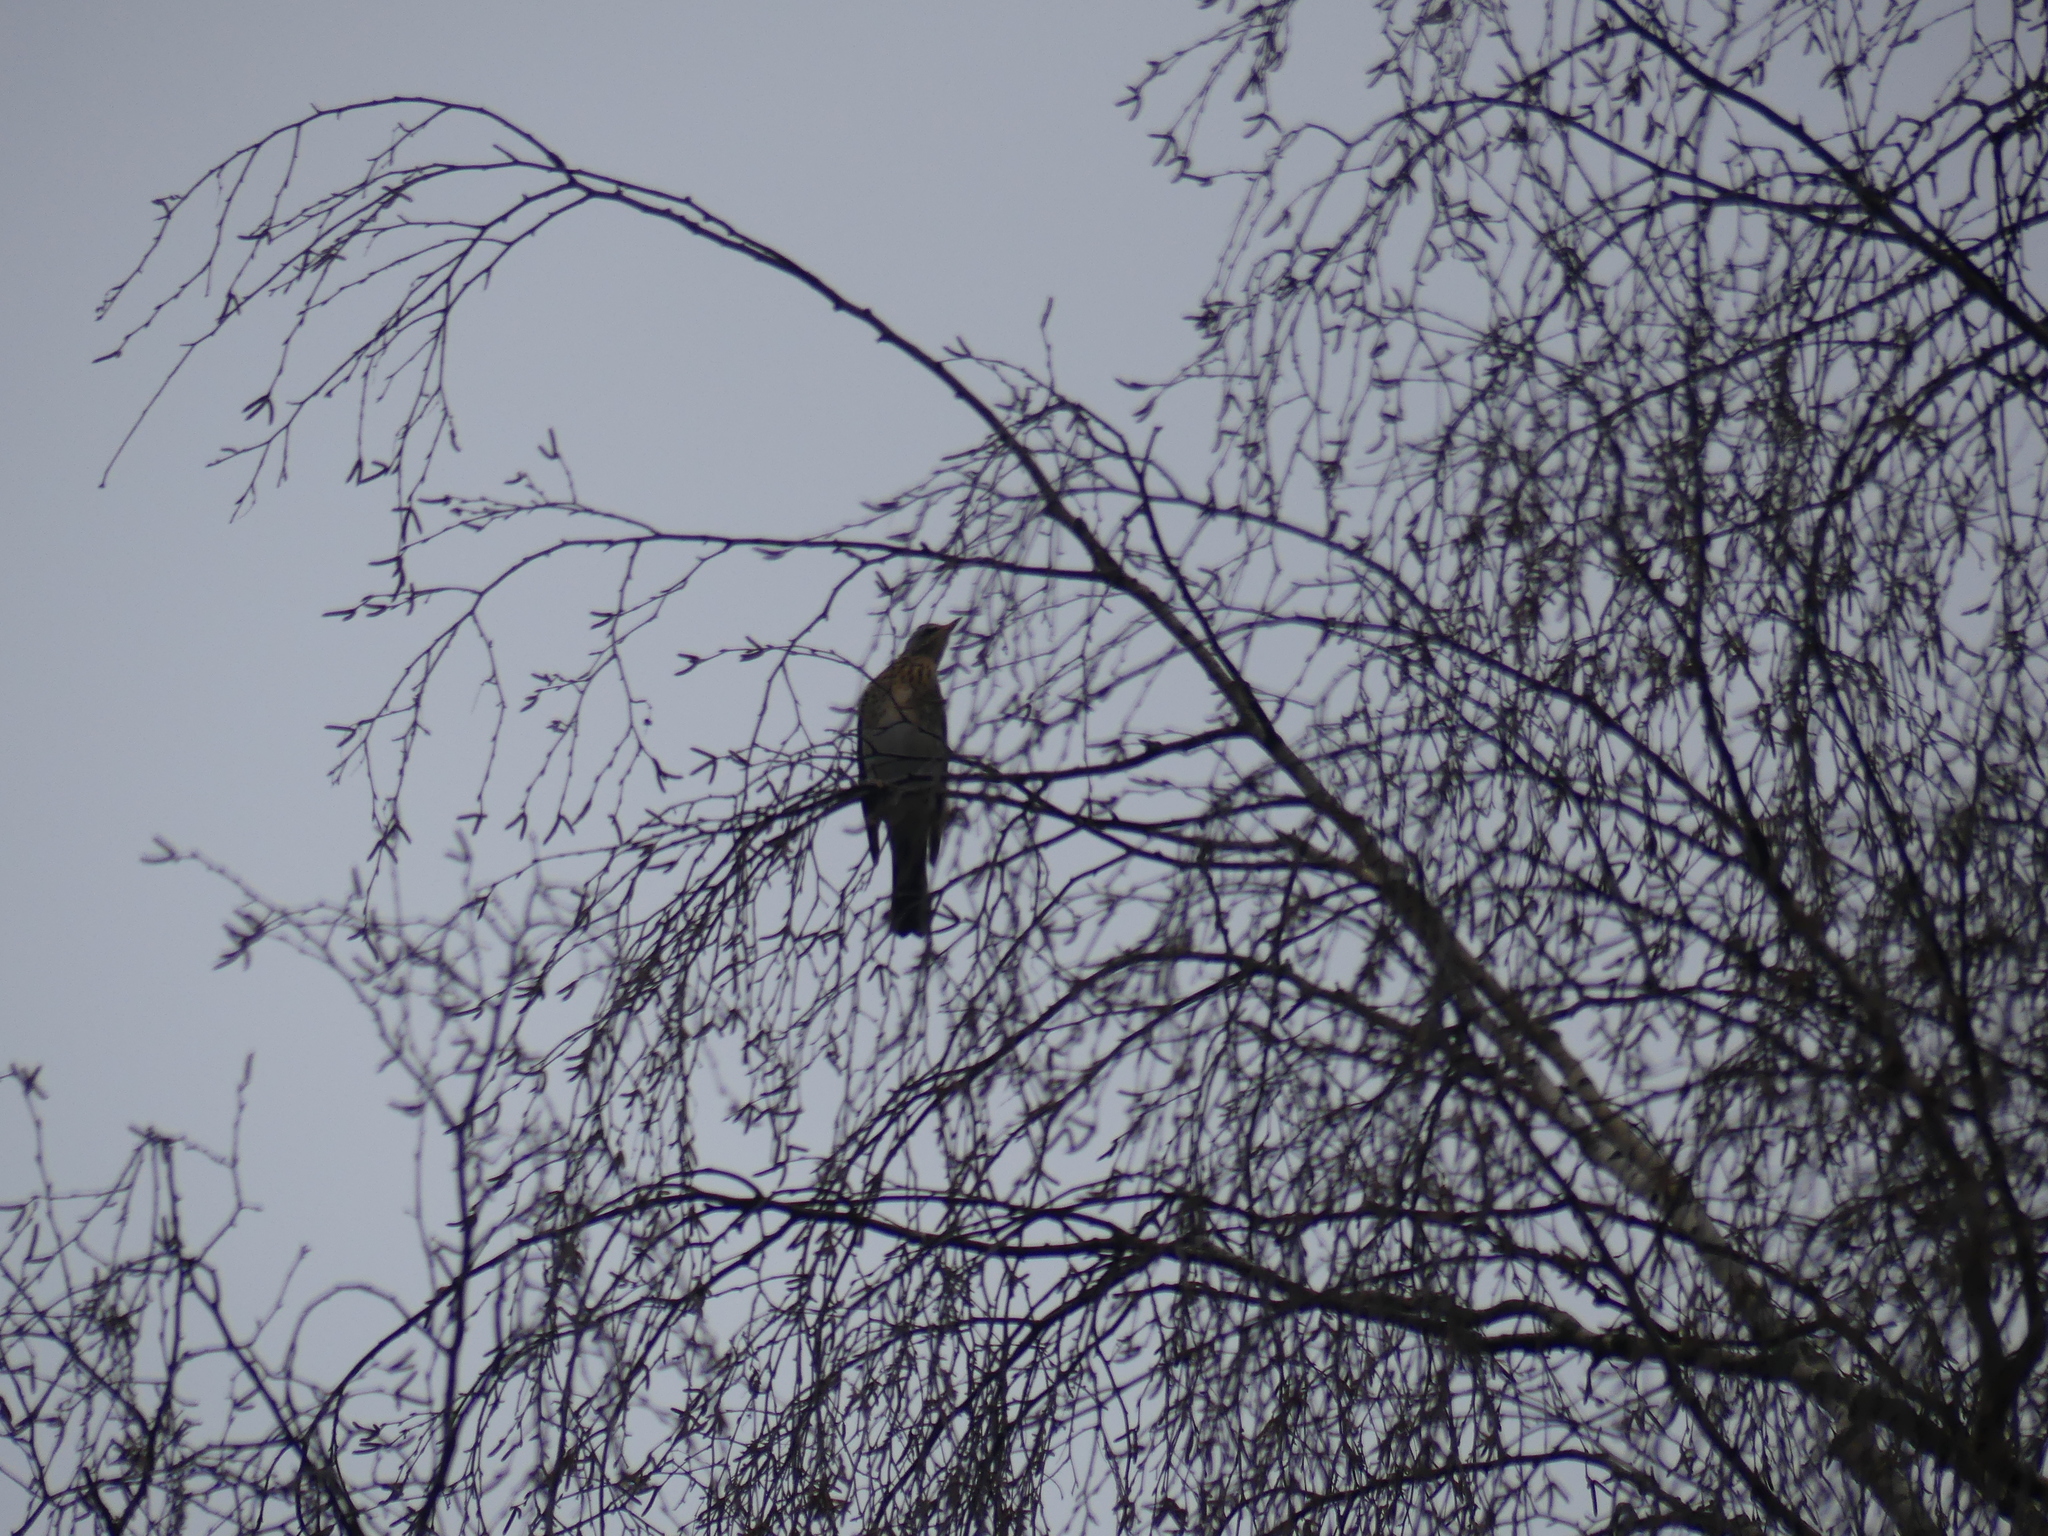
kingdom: Animalia
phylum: Chordata
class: Aves
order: Passeriformes
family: Turdidae
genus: Turdus
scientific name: Turdus pilaris
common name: Fieldfare
